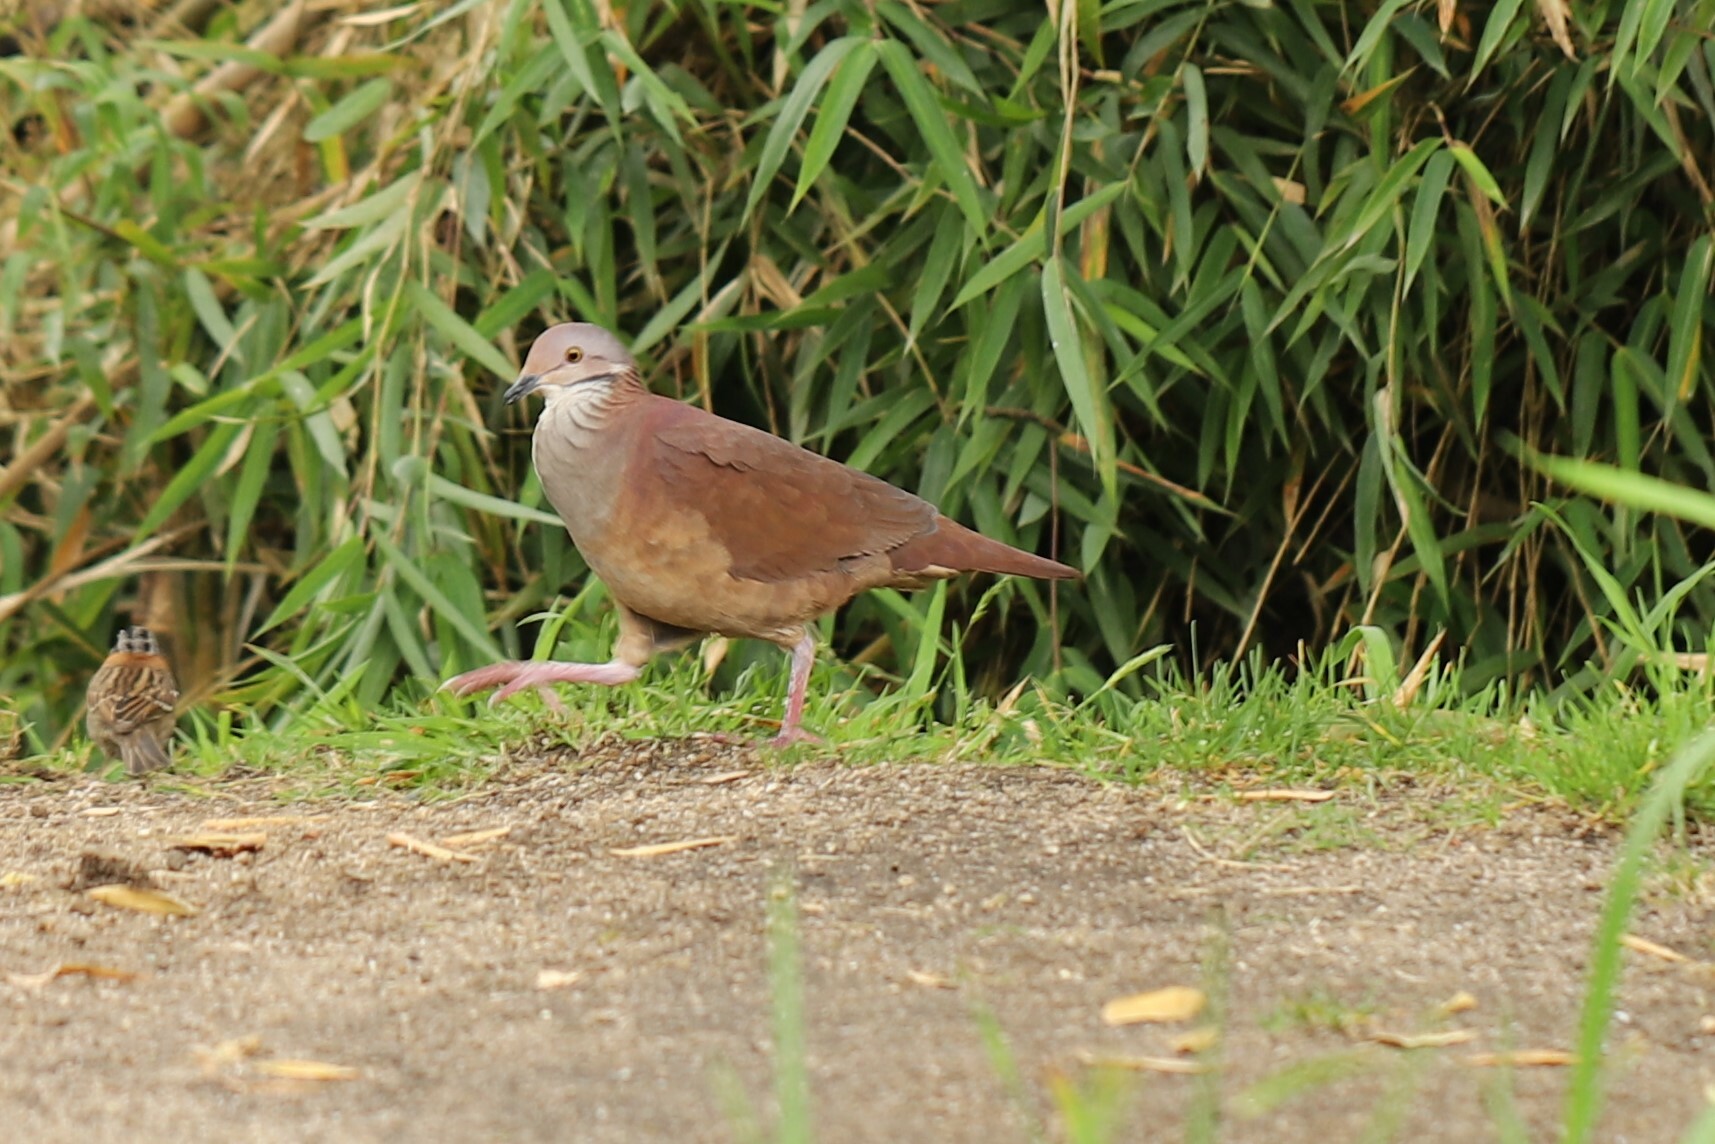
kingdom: Animalia
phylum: Chordata
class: Aves
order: Columbiformes
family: Columbidae
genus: Zentrygon
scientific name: Zentrygon frenata
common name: White-throated quail-dove
